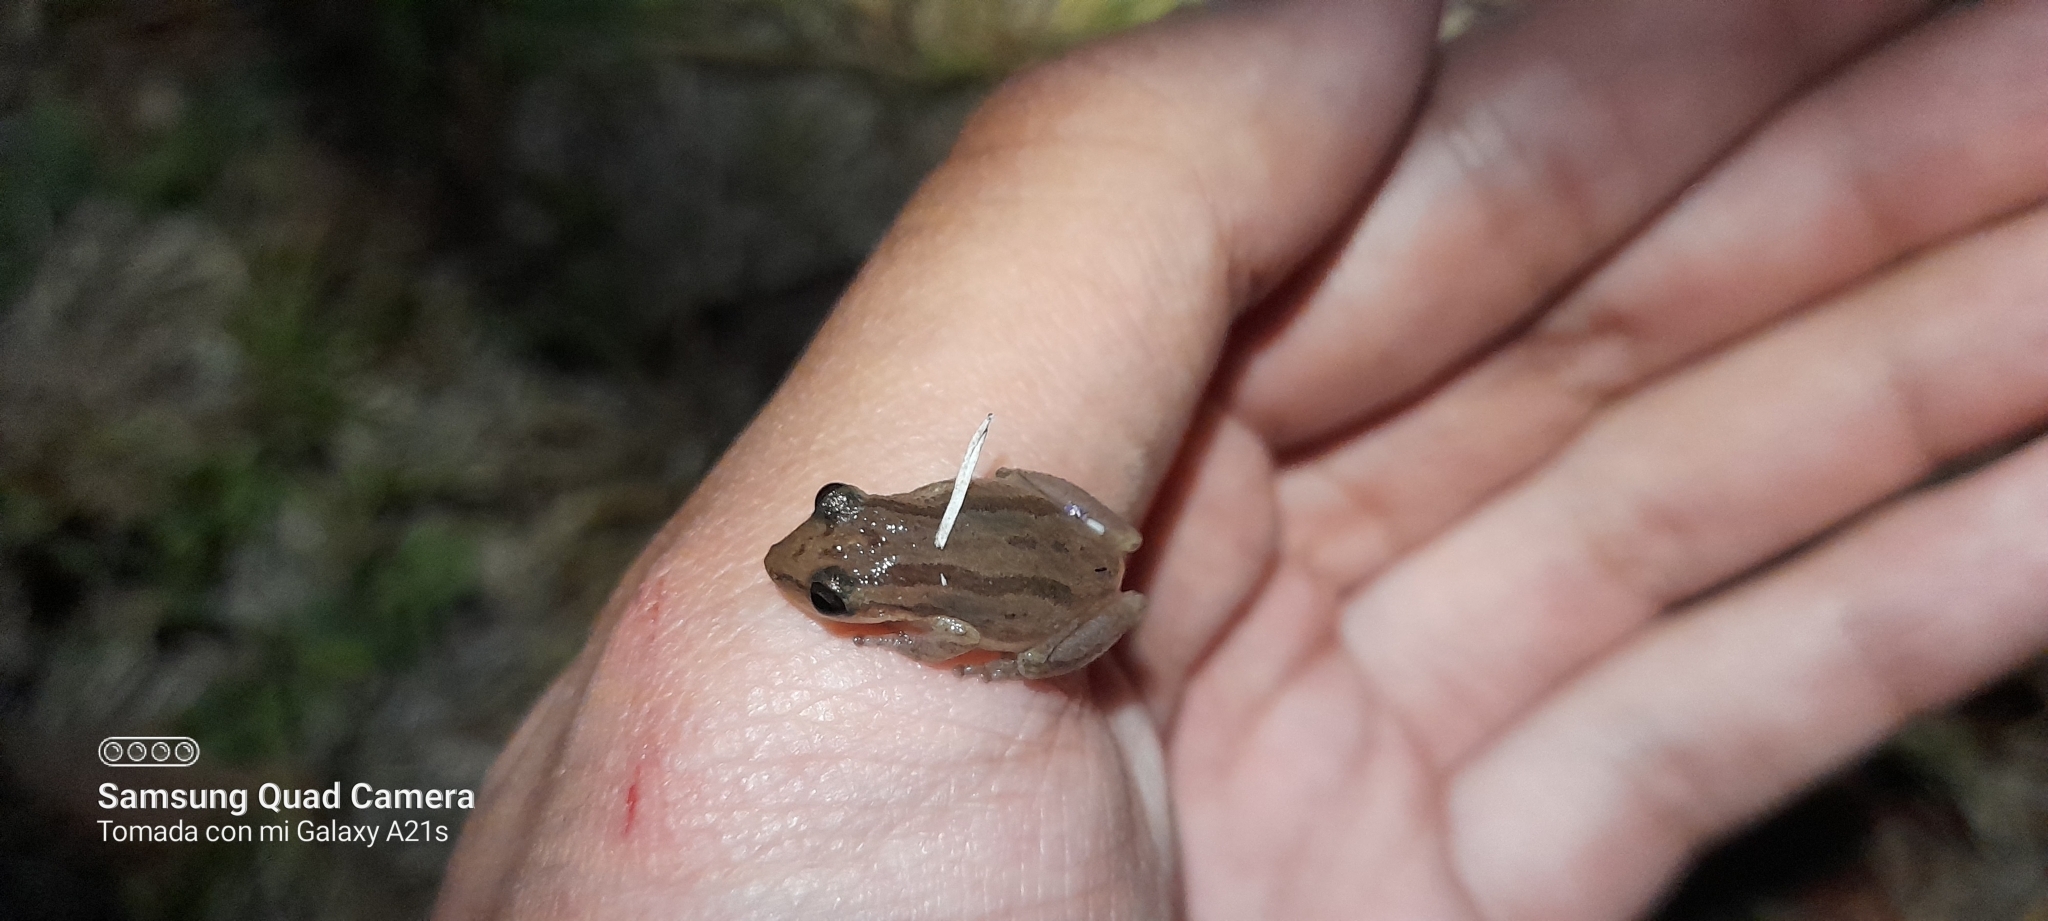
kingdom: Animalia
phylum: Chordata
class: Amphibia
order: Anura
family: Hylidae
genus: Scinax
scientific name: Scinax altae
